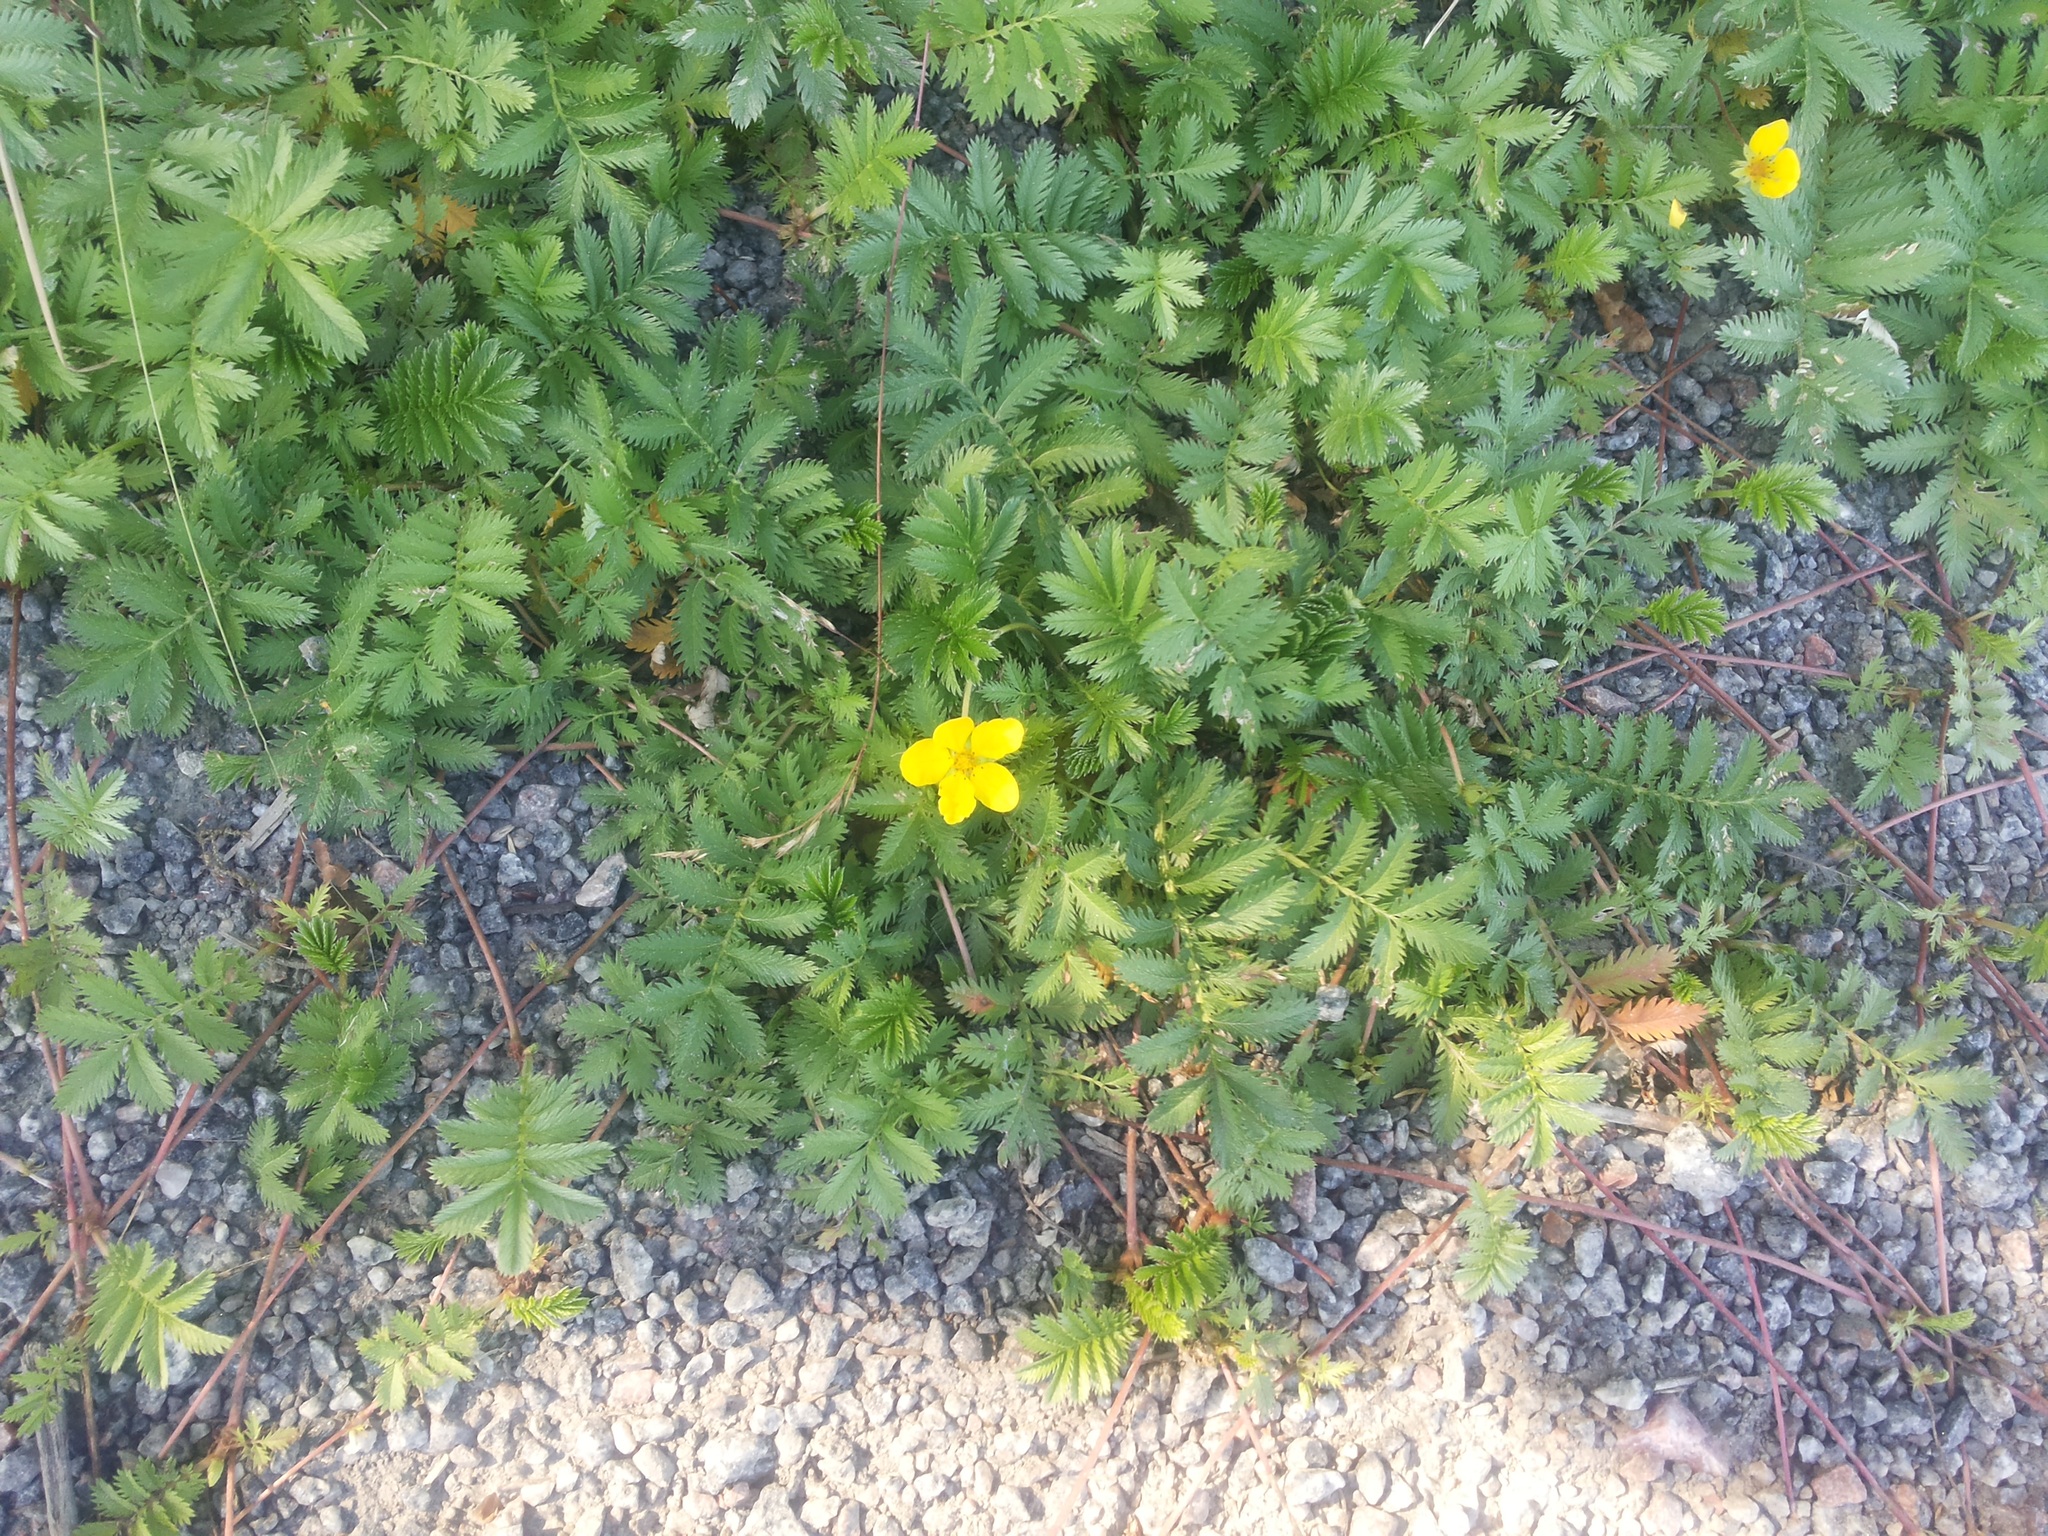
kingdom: Plantae
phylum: Tracheophyta
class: Magnoliopsida
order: Rosales
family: Rosaceae
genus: Argentina
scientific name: Argentina anserina
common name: Common silverweed
